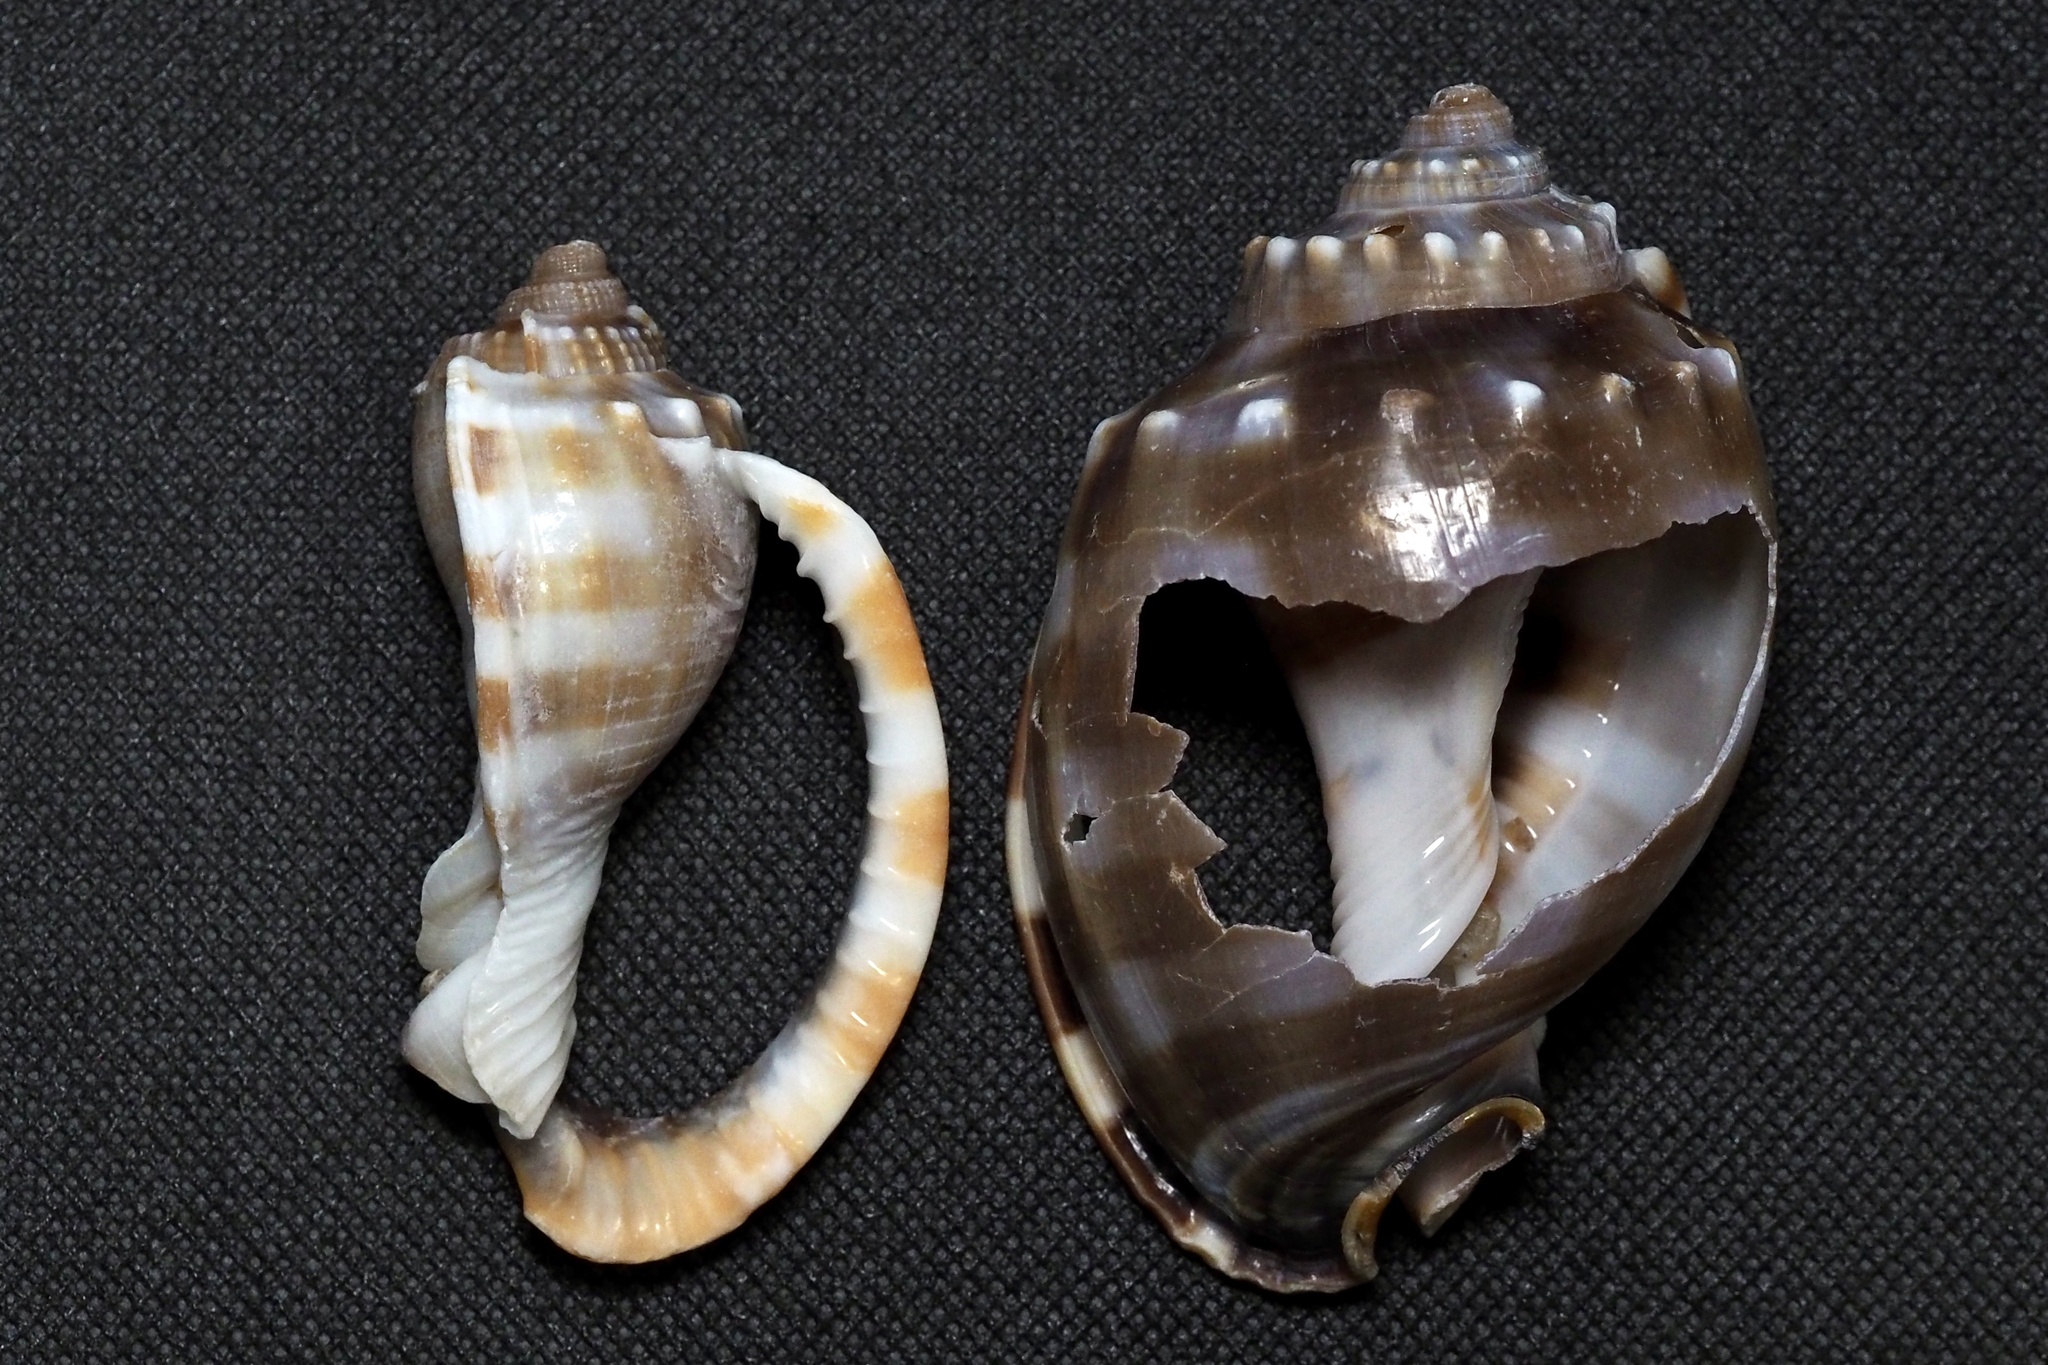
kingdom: Animalia
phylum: Mollusca
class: Gastropoda
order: Littorinimorpha
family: Cassidae
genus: Phalium
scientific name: Phalium bandatum
